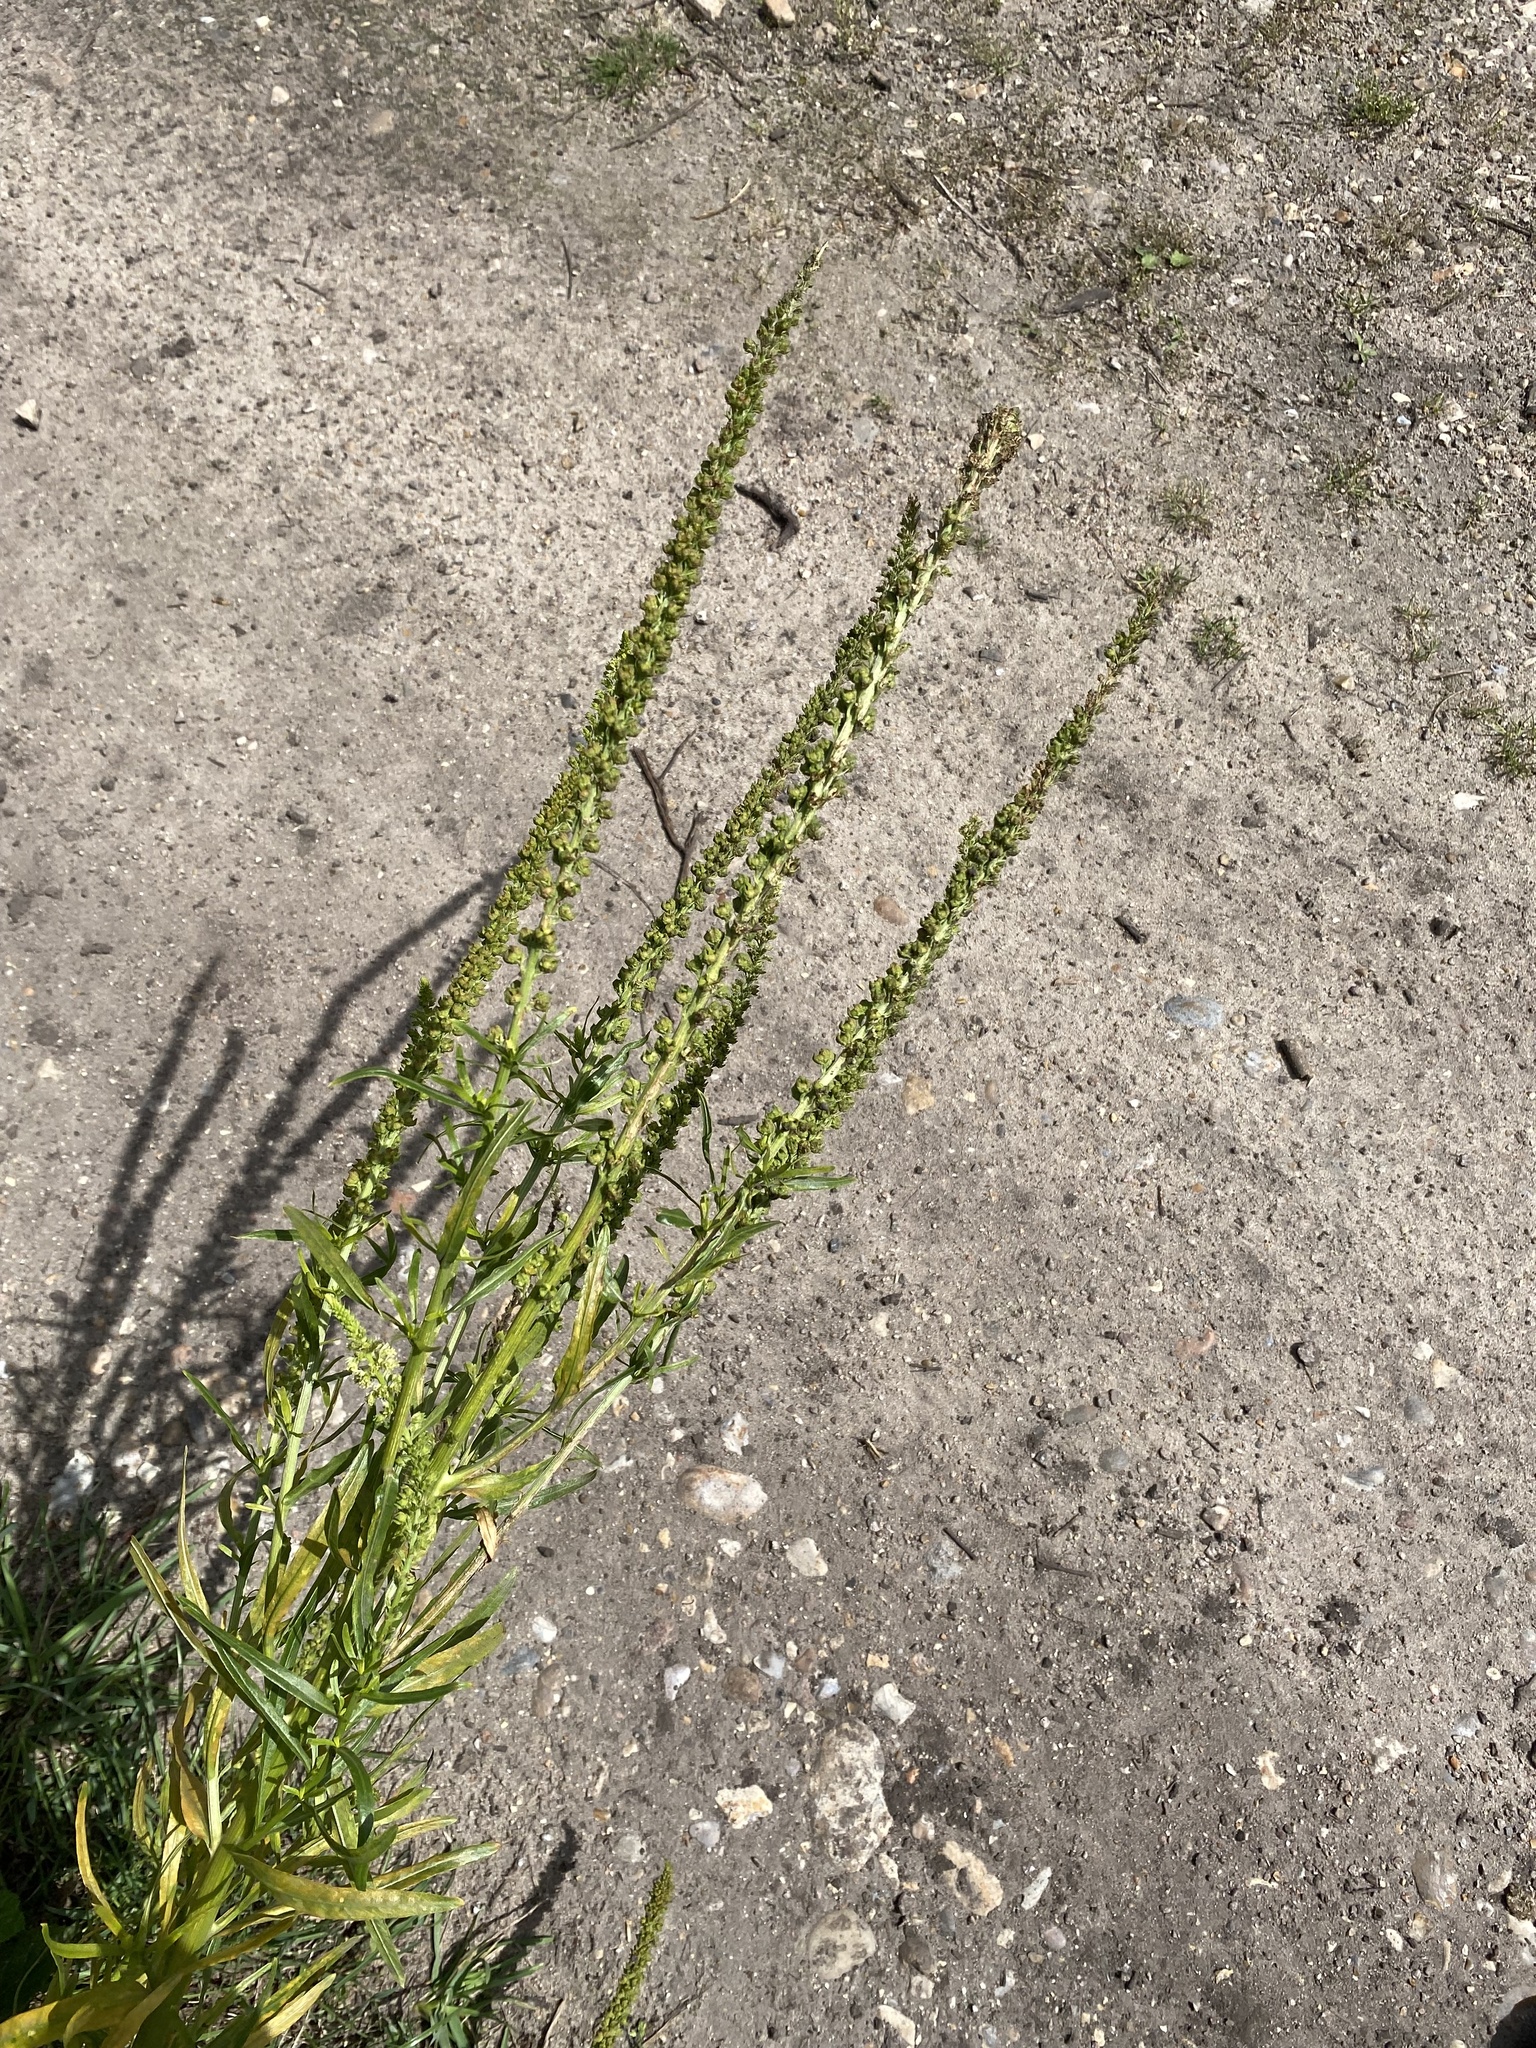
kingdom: Plantae
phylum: Tracheophyta
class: Magnoliopsida
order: Brassicales
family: Resedaceae
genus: Reseda
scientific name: Reseda luteola
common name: Weld
